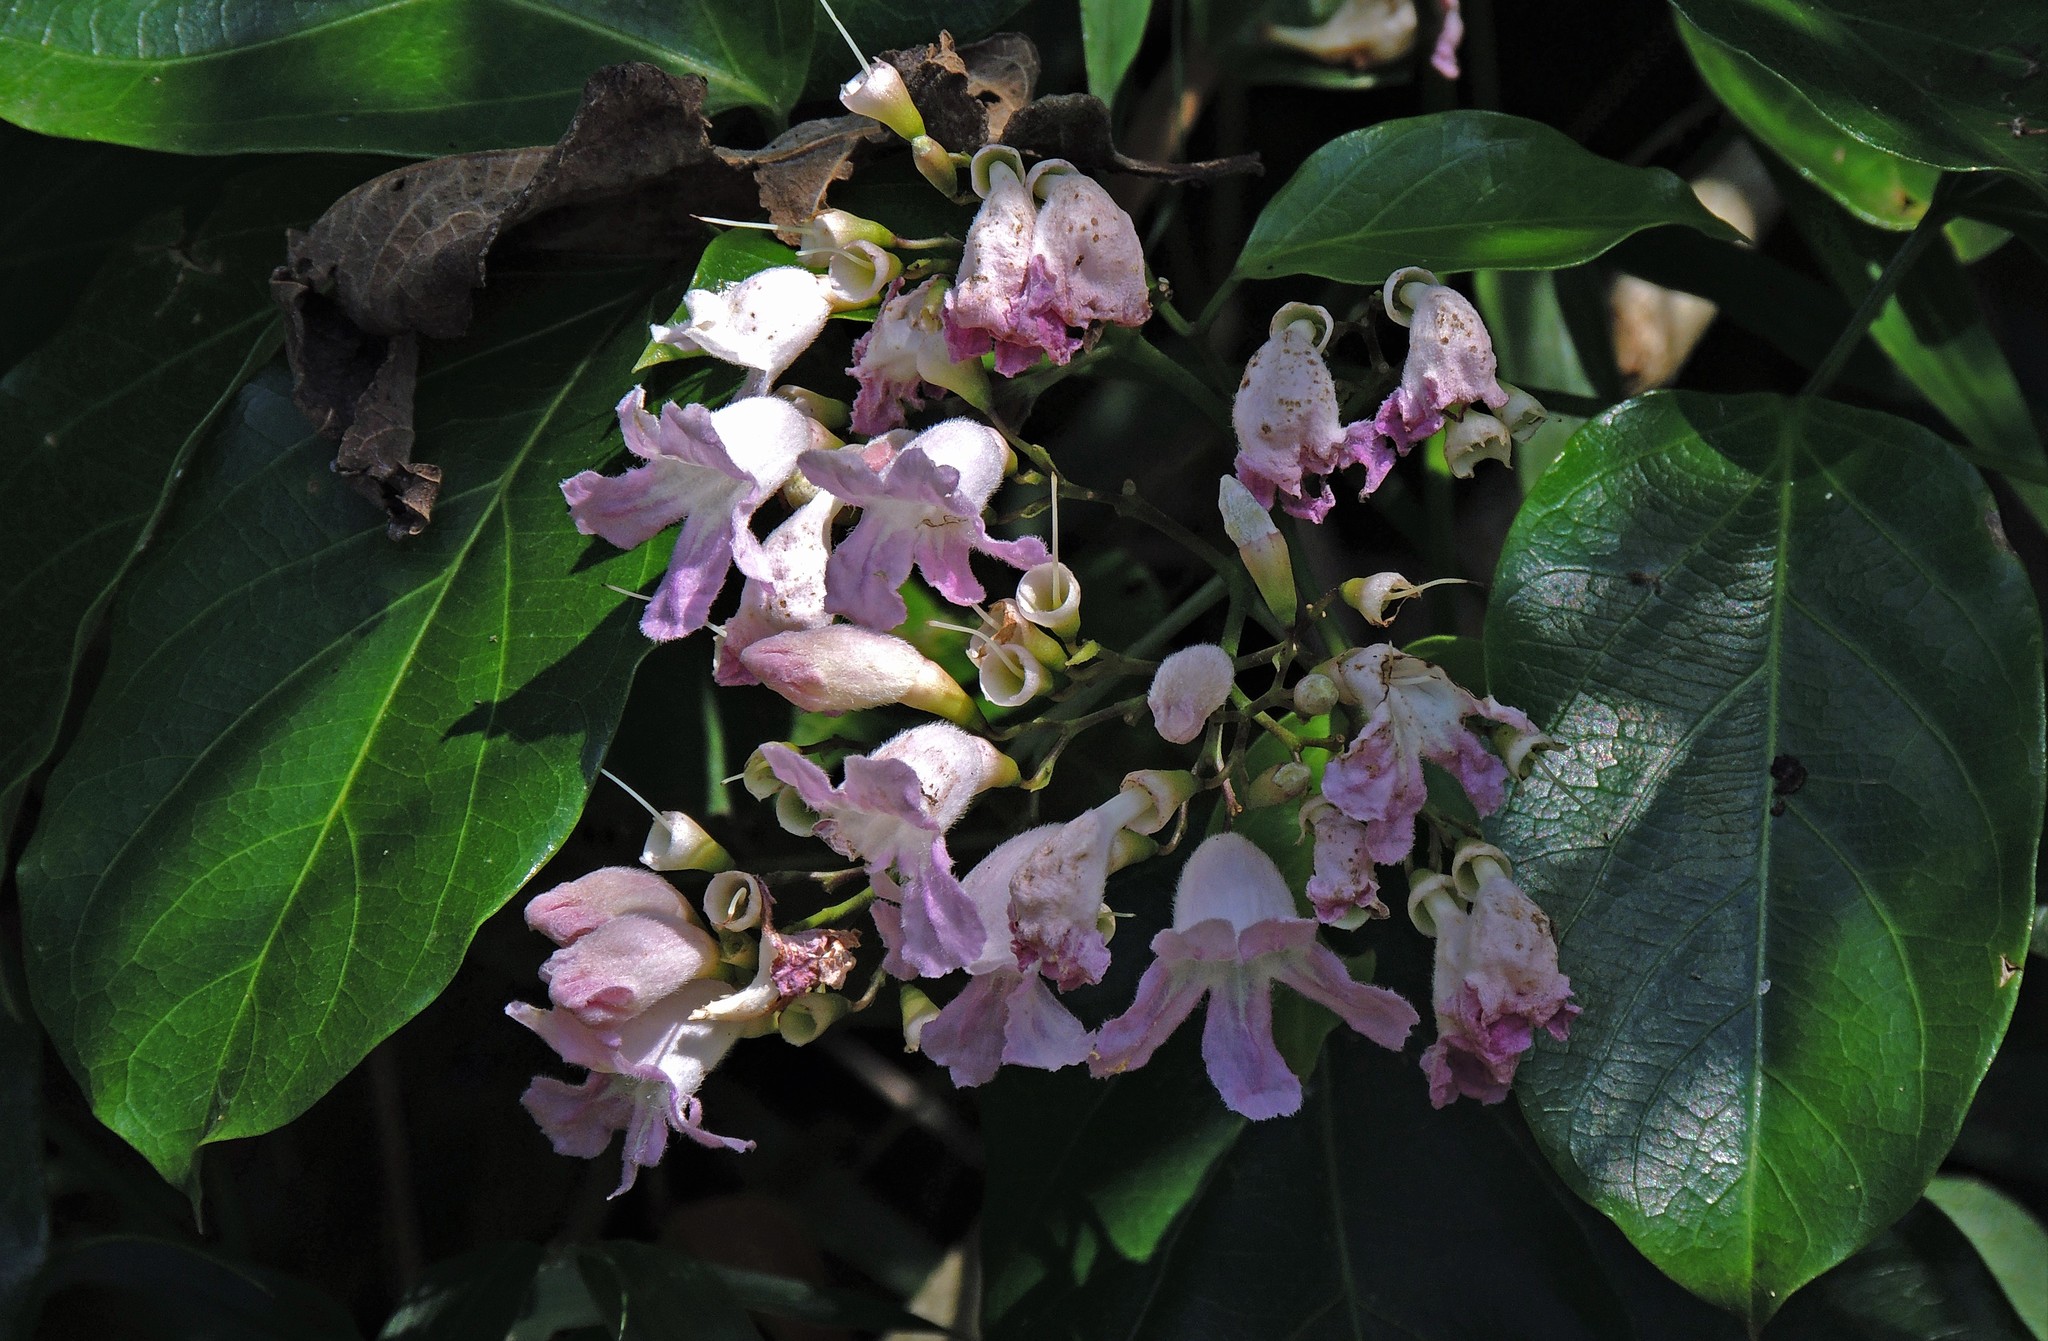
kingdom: Plantae
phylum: Tracheophyta
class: Magnoliopsida
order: Lamiales
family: Bignoniaceae
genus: Fridericia
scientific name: Fridericia chica
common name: Cricketvine
